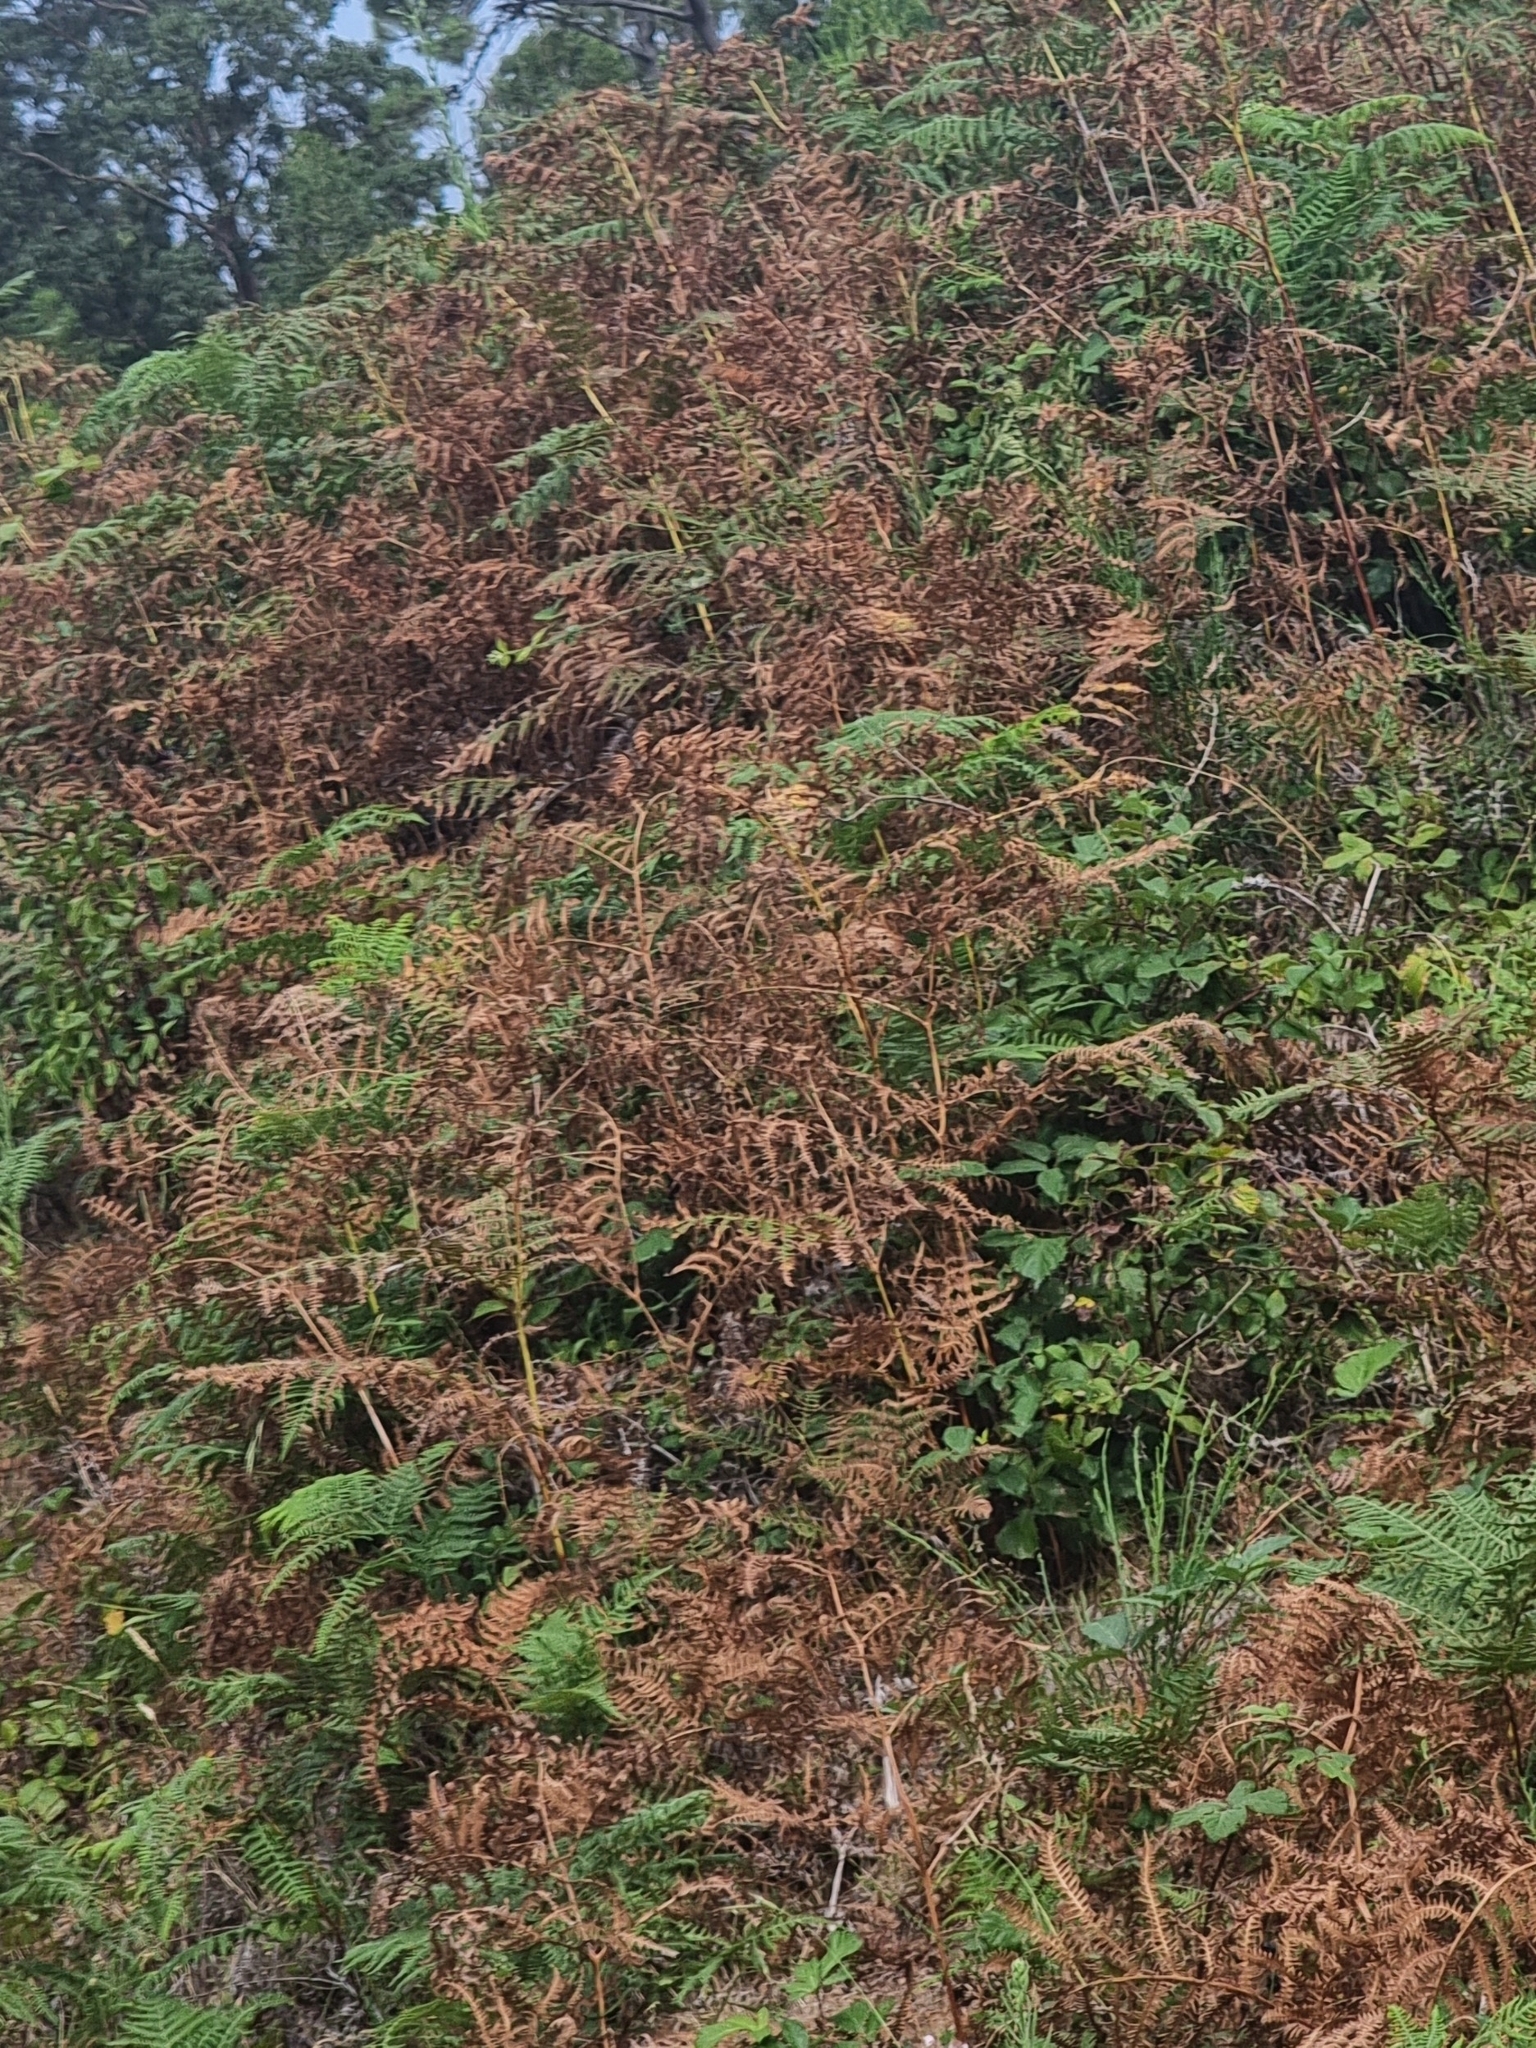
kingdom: Plantae
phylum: Tracheophyta
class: Polypodiopsida
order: Polypodiales
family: Dennstaedtiaceae
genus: Pteridium
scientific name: Pteridium aquilinum
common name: Bracken
